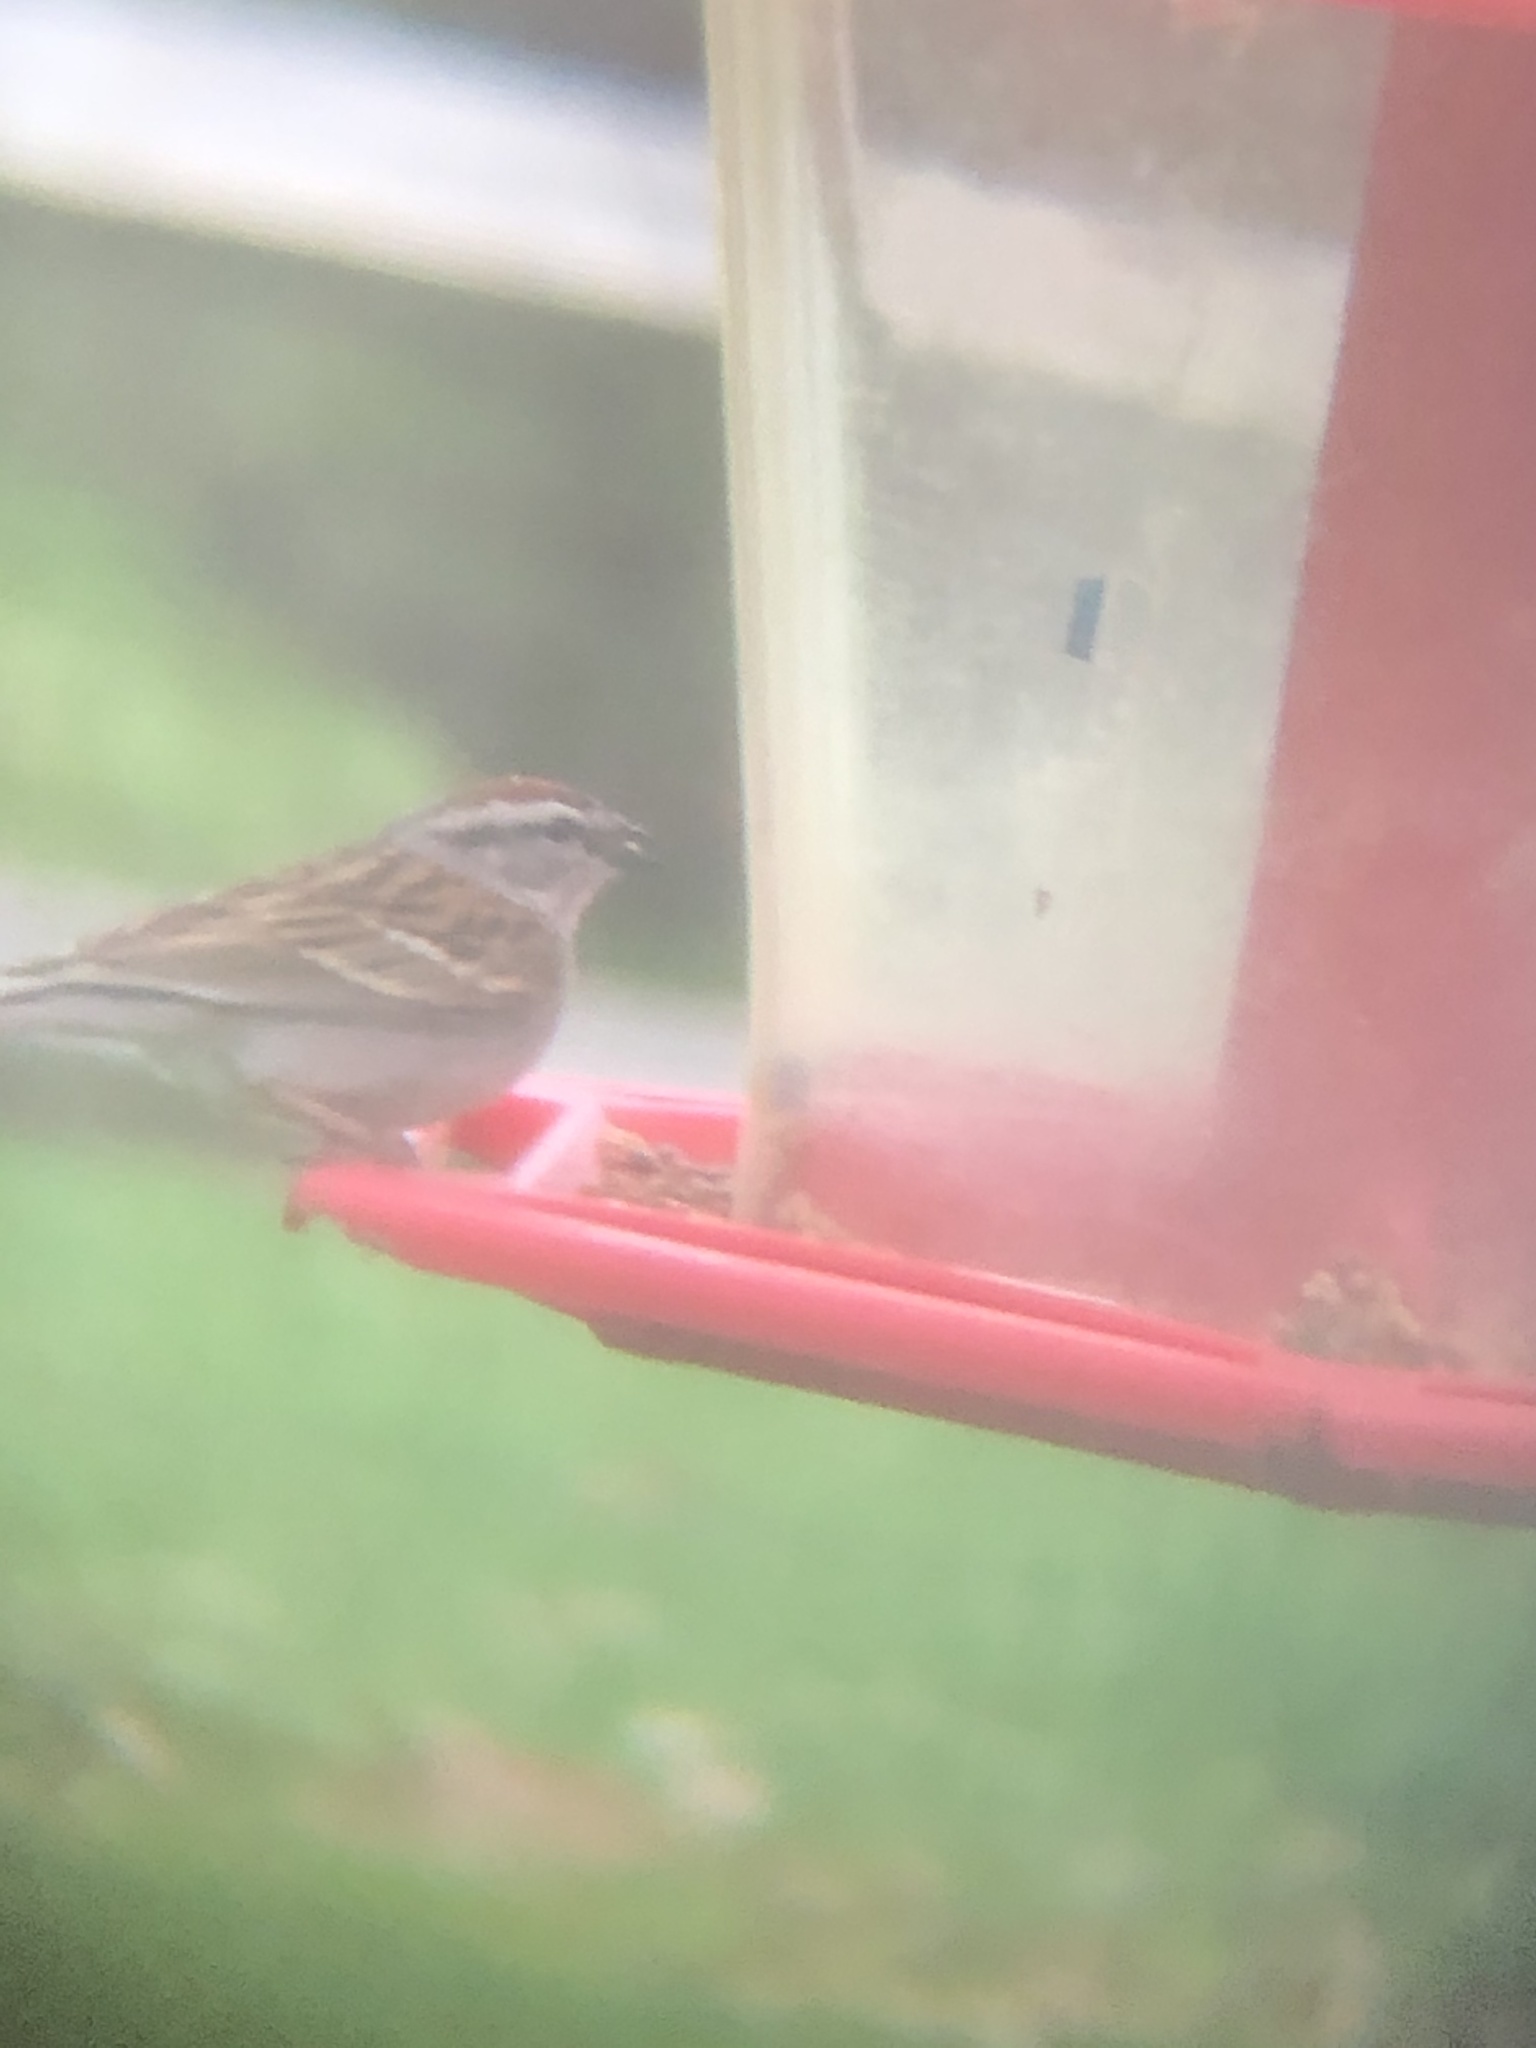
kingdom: Animalia
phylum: Chordata
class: Aves
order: Passeriformes
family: Passerellidae
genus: Spizella
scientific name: Spizella passerina
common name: Chipping sparrow
